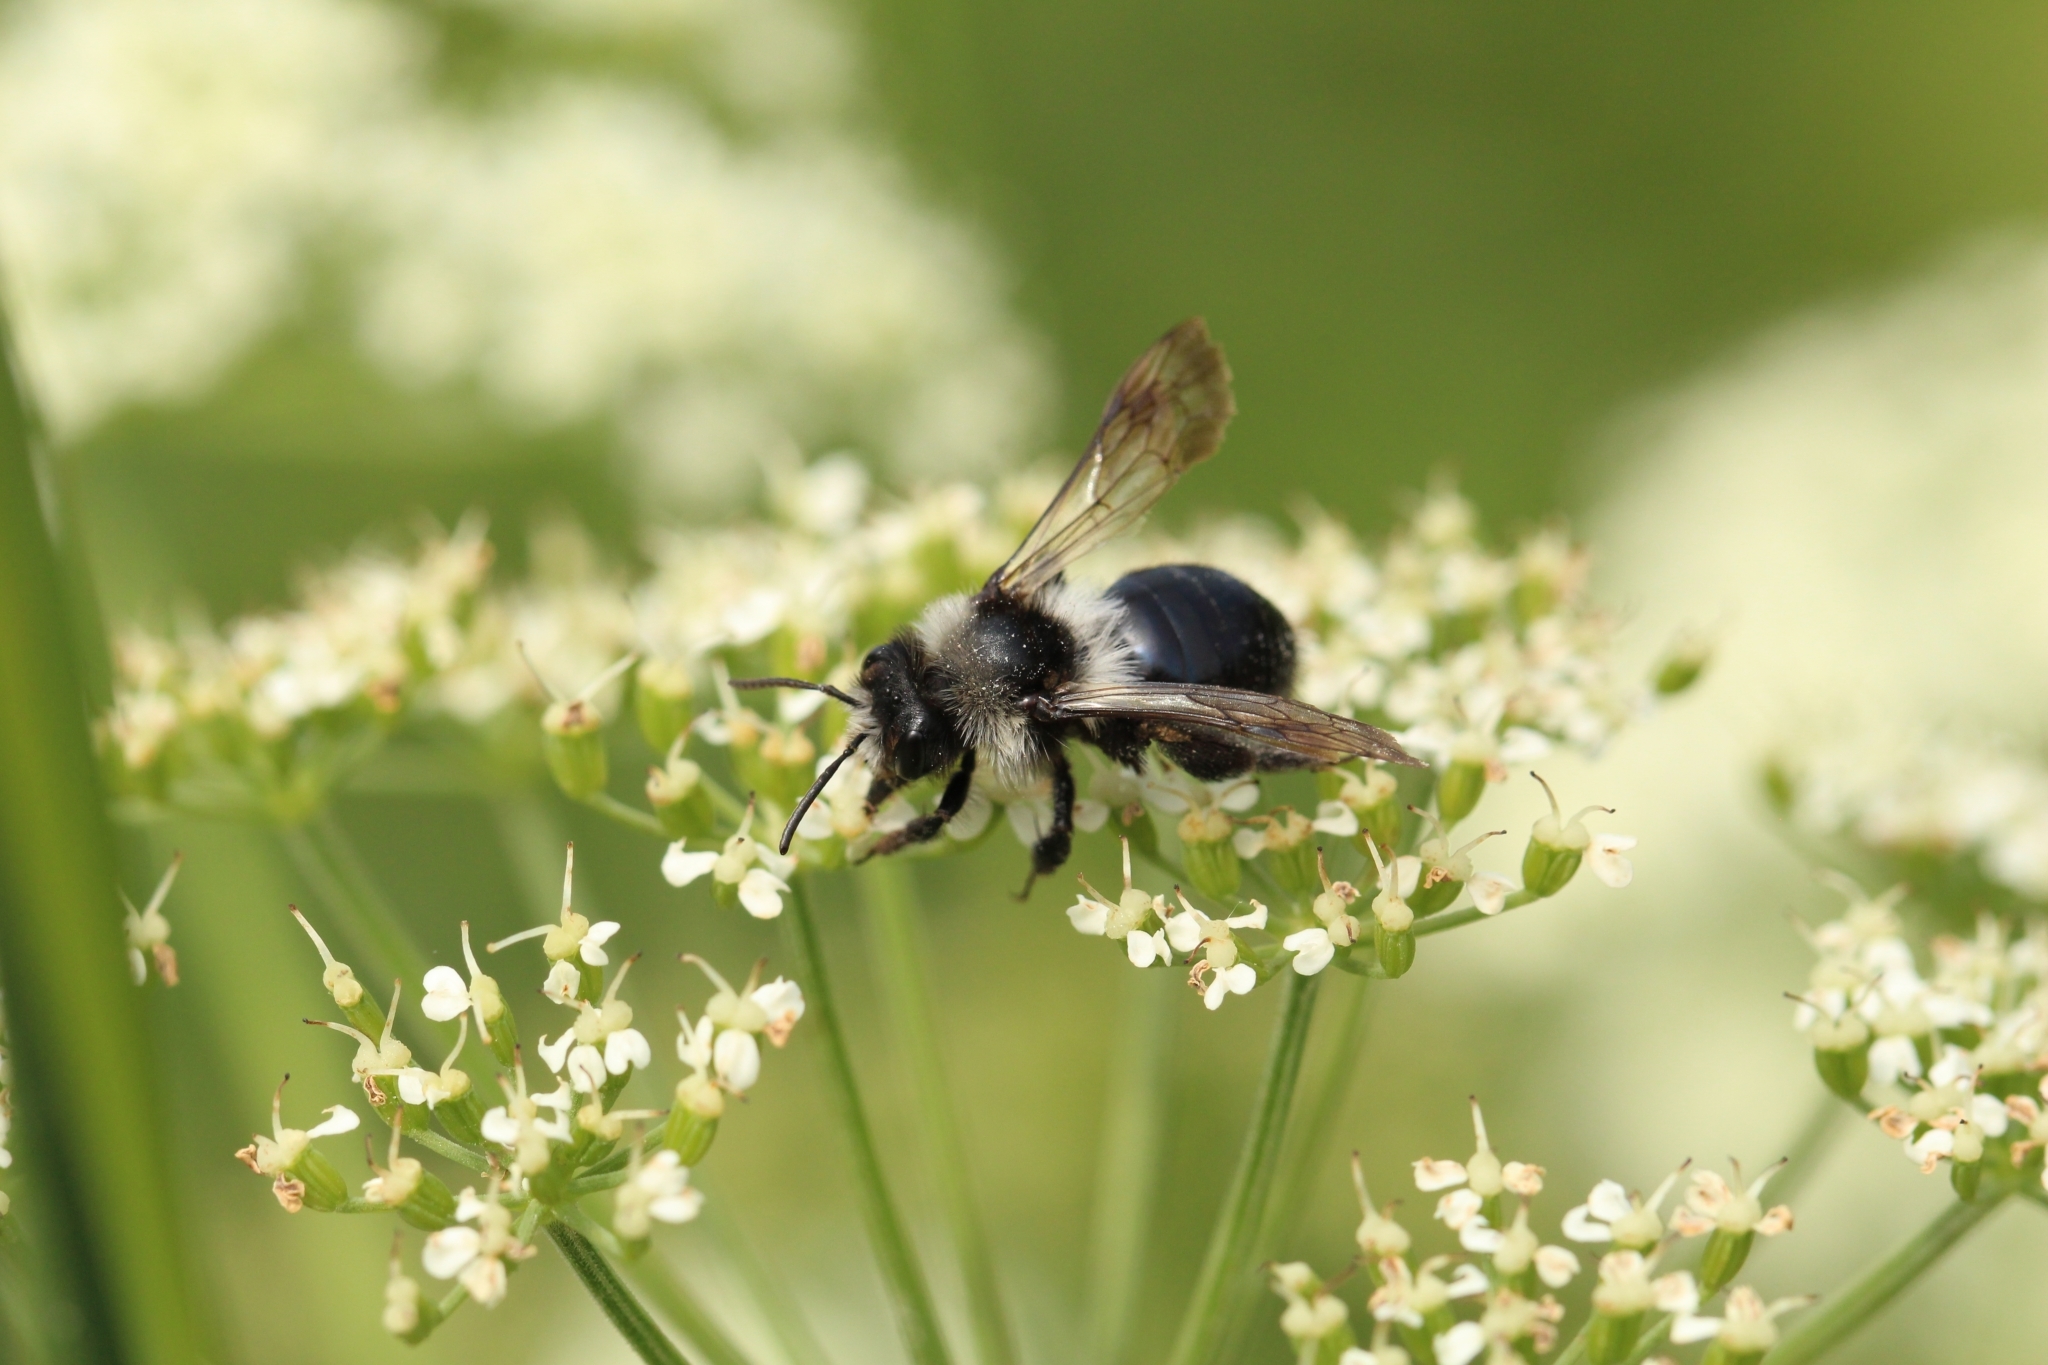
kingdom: Animalia
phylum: Arthropoda
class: Insecta
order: Hymenoptera
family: Andrenidae
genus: Andrena
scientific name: Andrena cineraria
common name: Ashy mining bee
